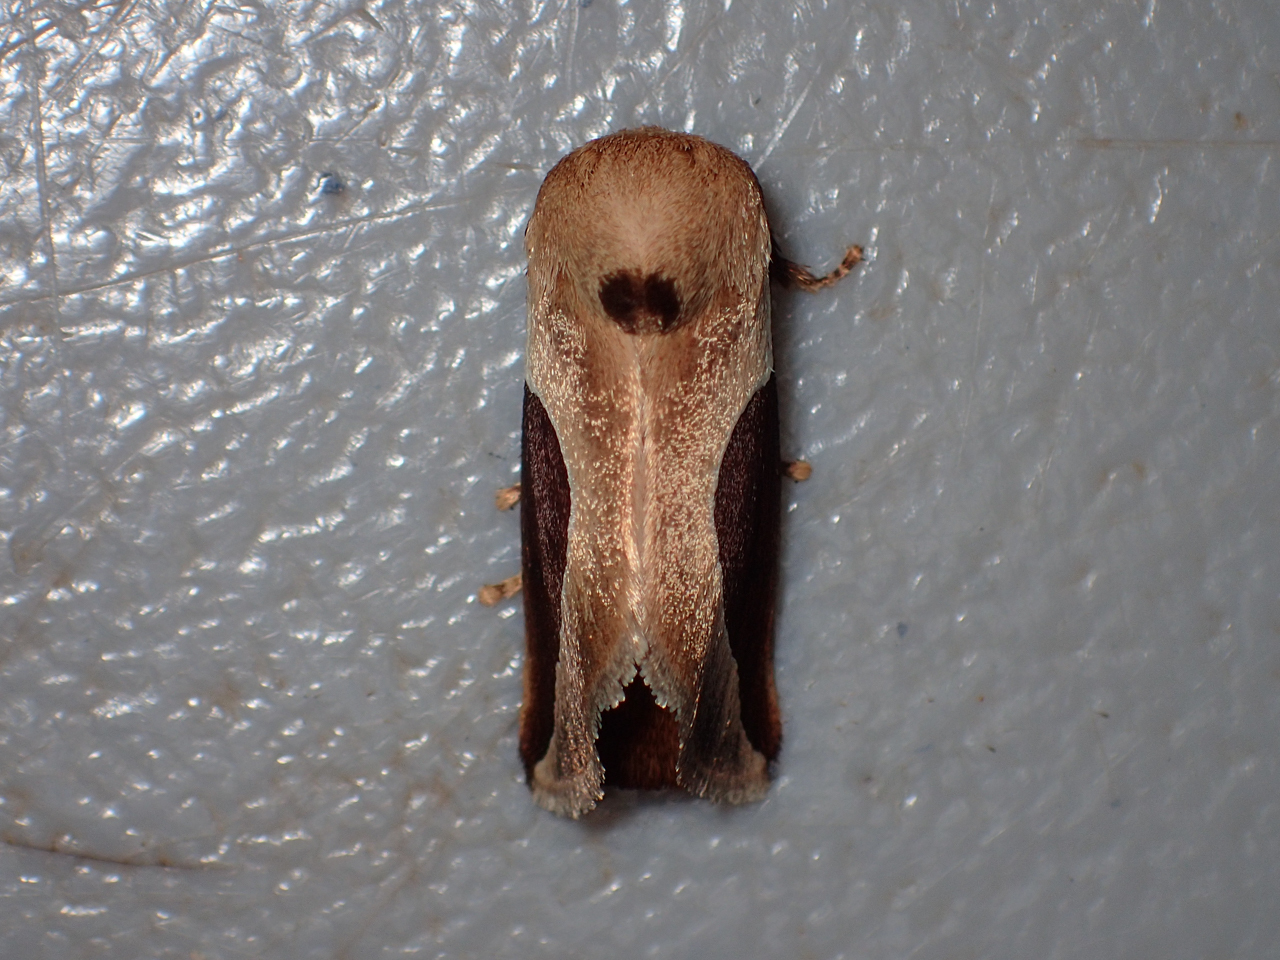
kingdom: Animalia
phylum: Arthropoda
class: Insecta
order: Lepidoptera
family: Limacodidae
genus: Prolimacodes
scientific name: Prolimacodes badia
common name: Skiff moth
